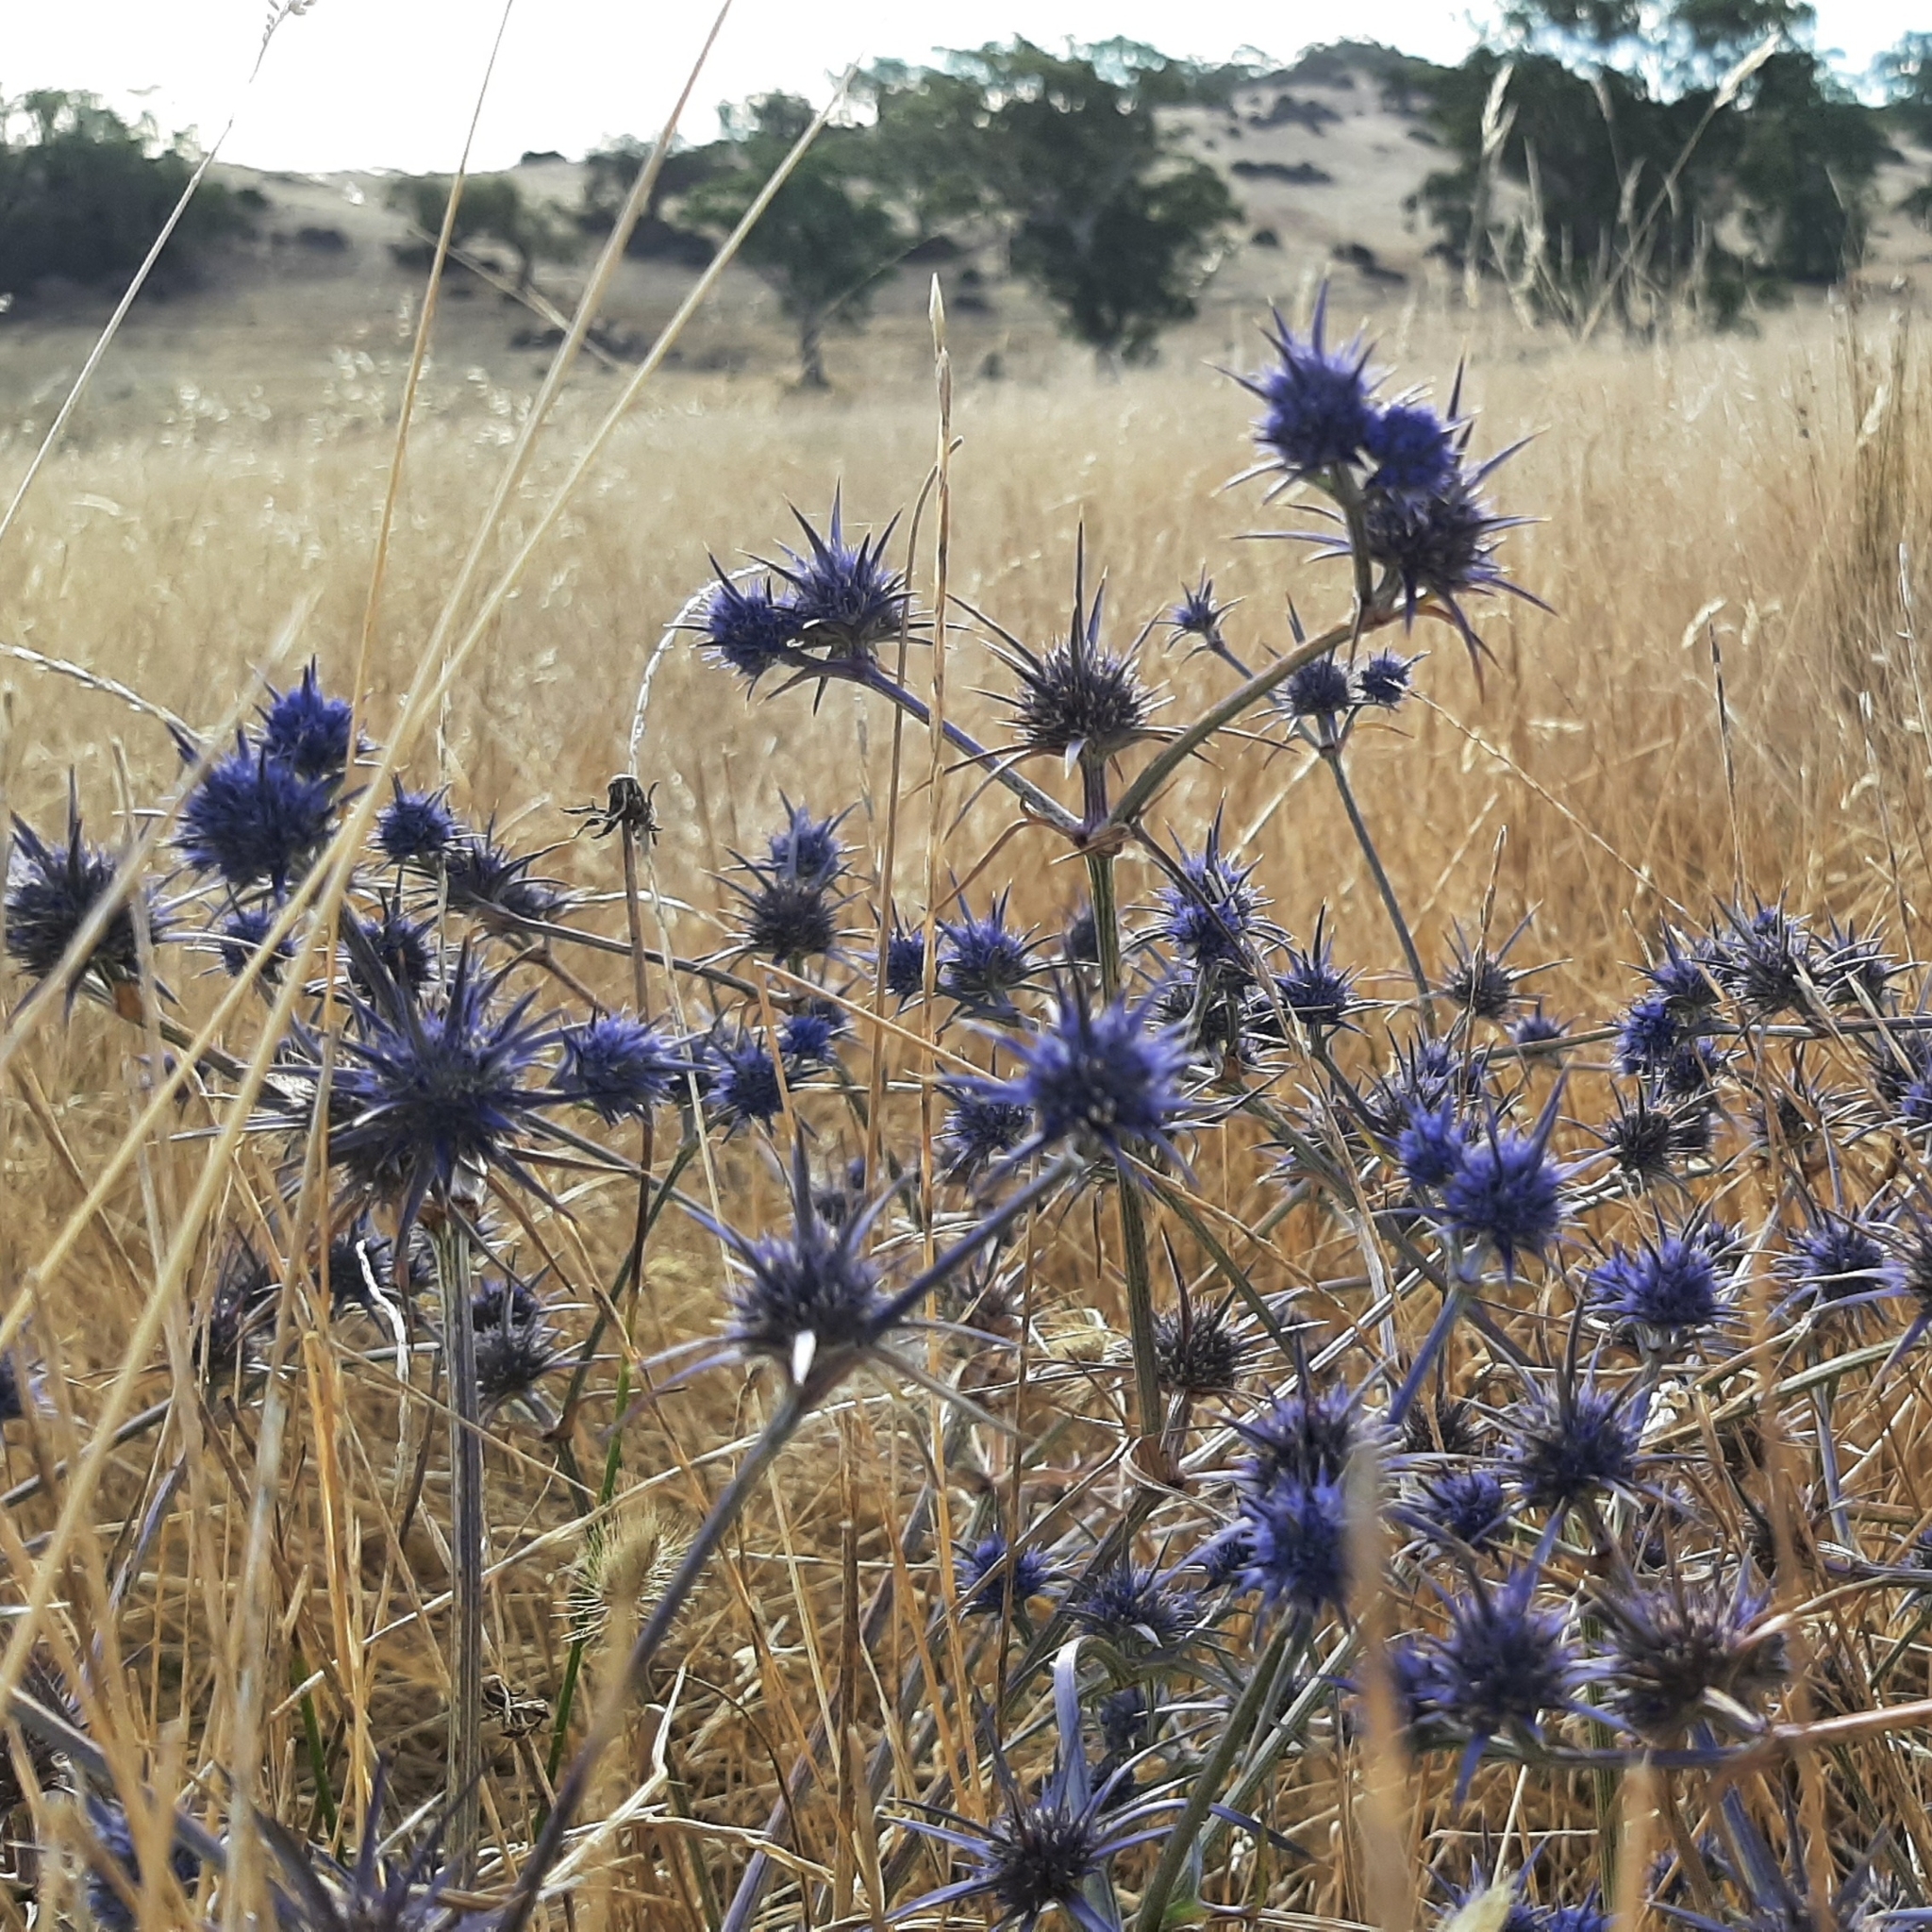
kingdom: Plantae
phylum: Tracheophyta
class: Magnoliopsida
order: Apiales
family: Apiaceae
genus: Eryngium
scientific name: Eryngium ovinum
